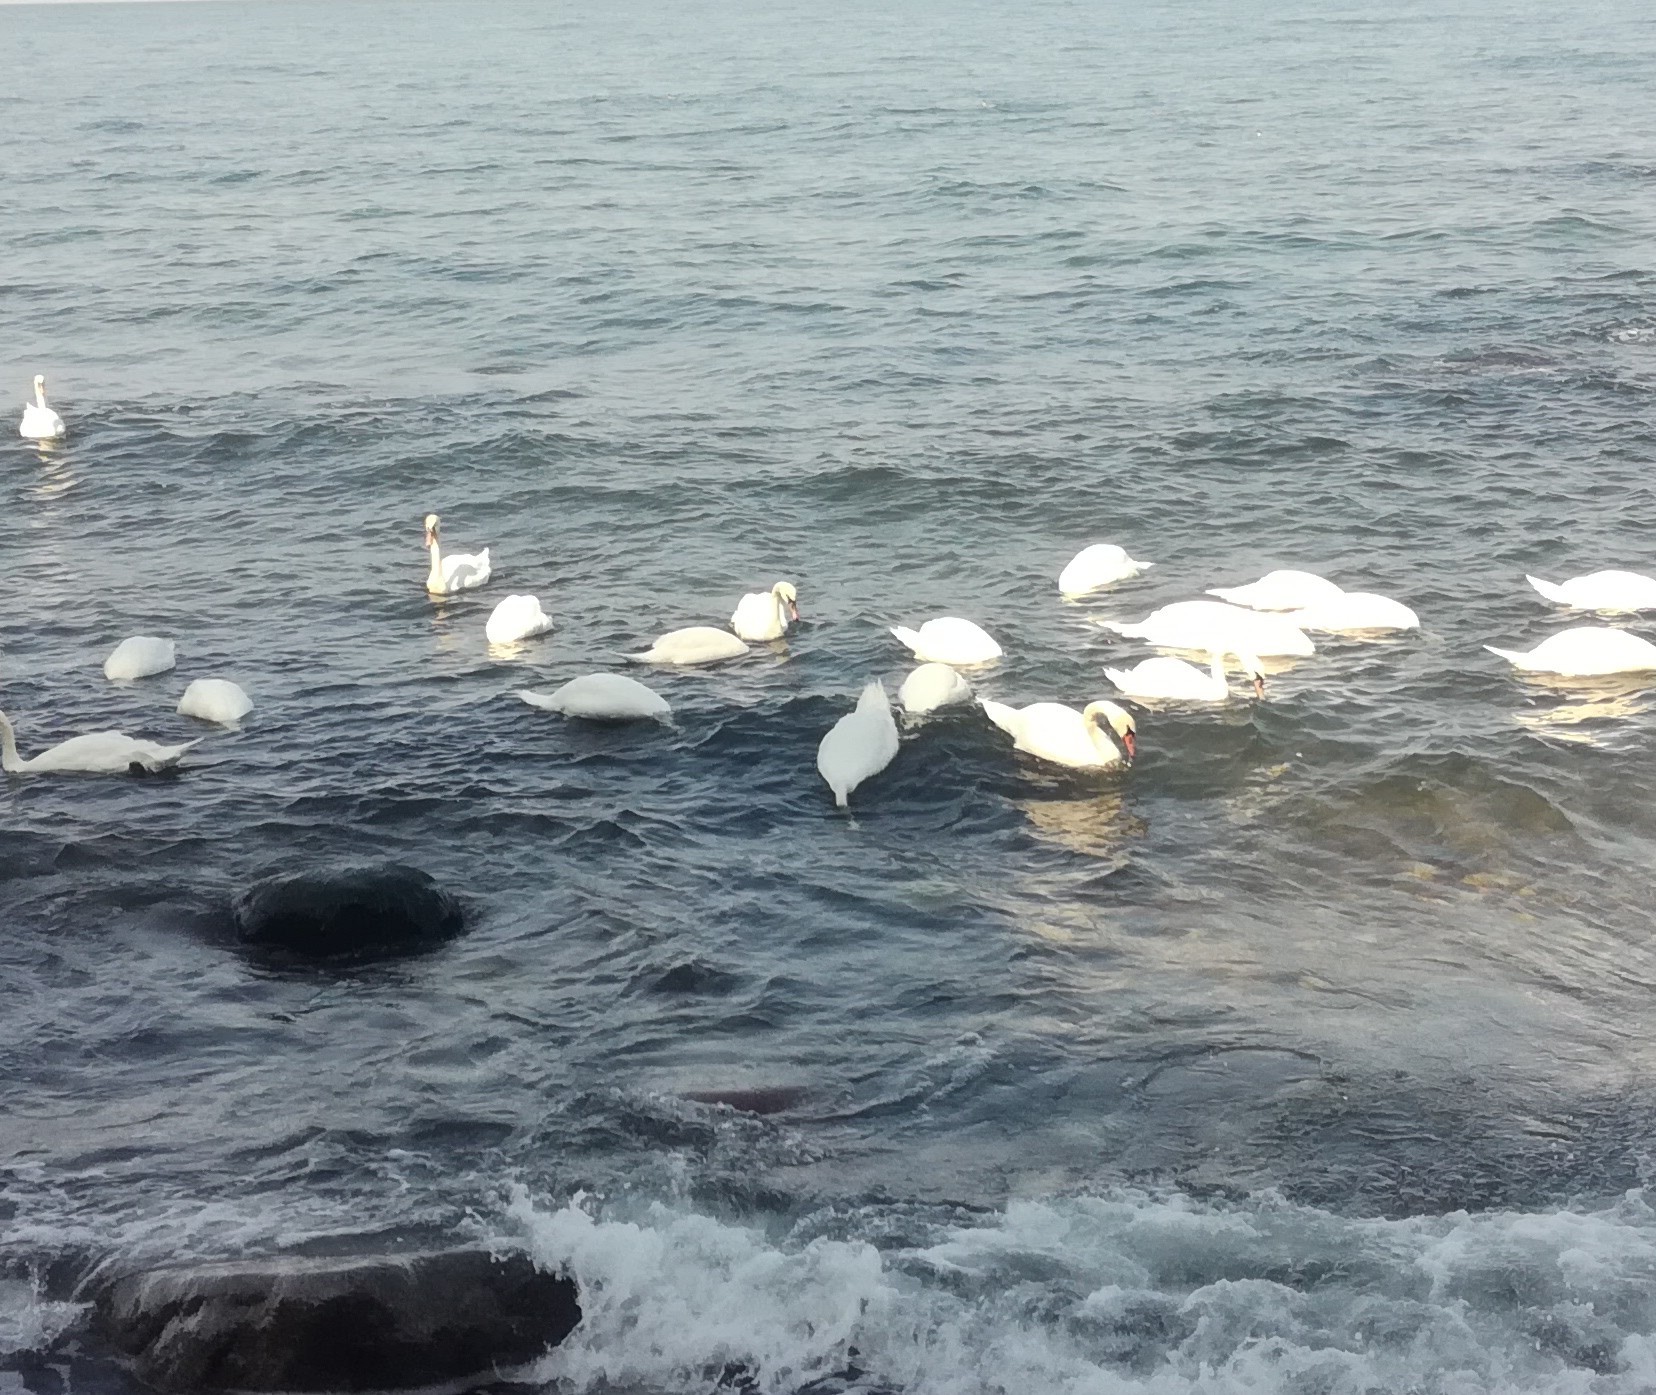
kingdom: Animalia
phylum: Chordata
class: Aves
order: Anseriformes
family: Anatidae
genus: Cygnus
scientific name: Cygnus olor
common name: Mute swan
